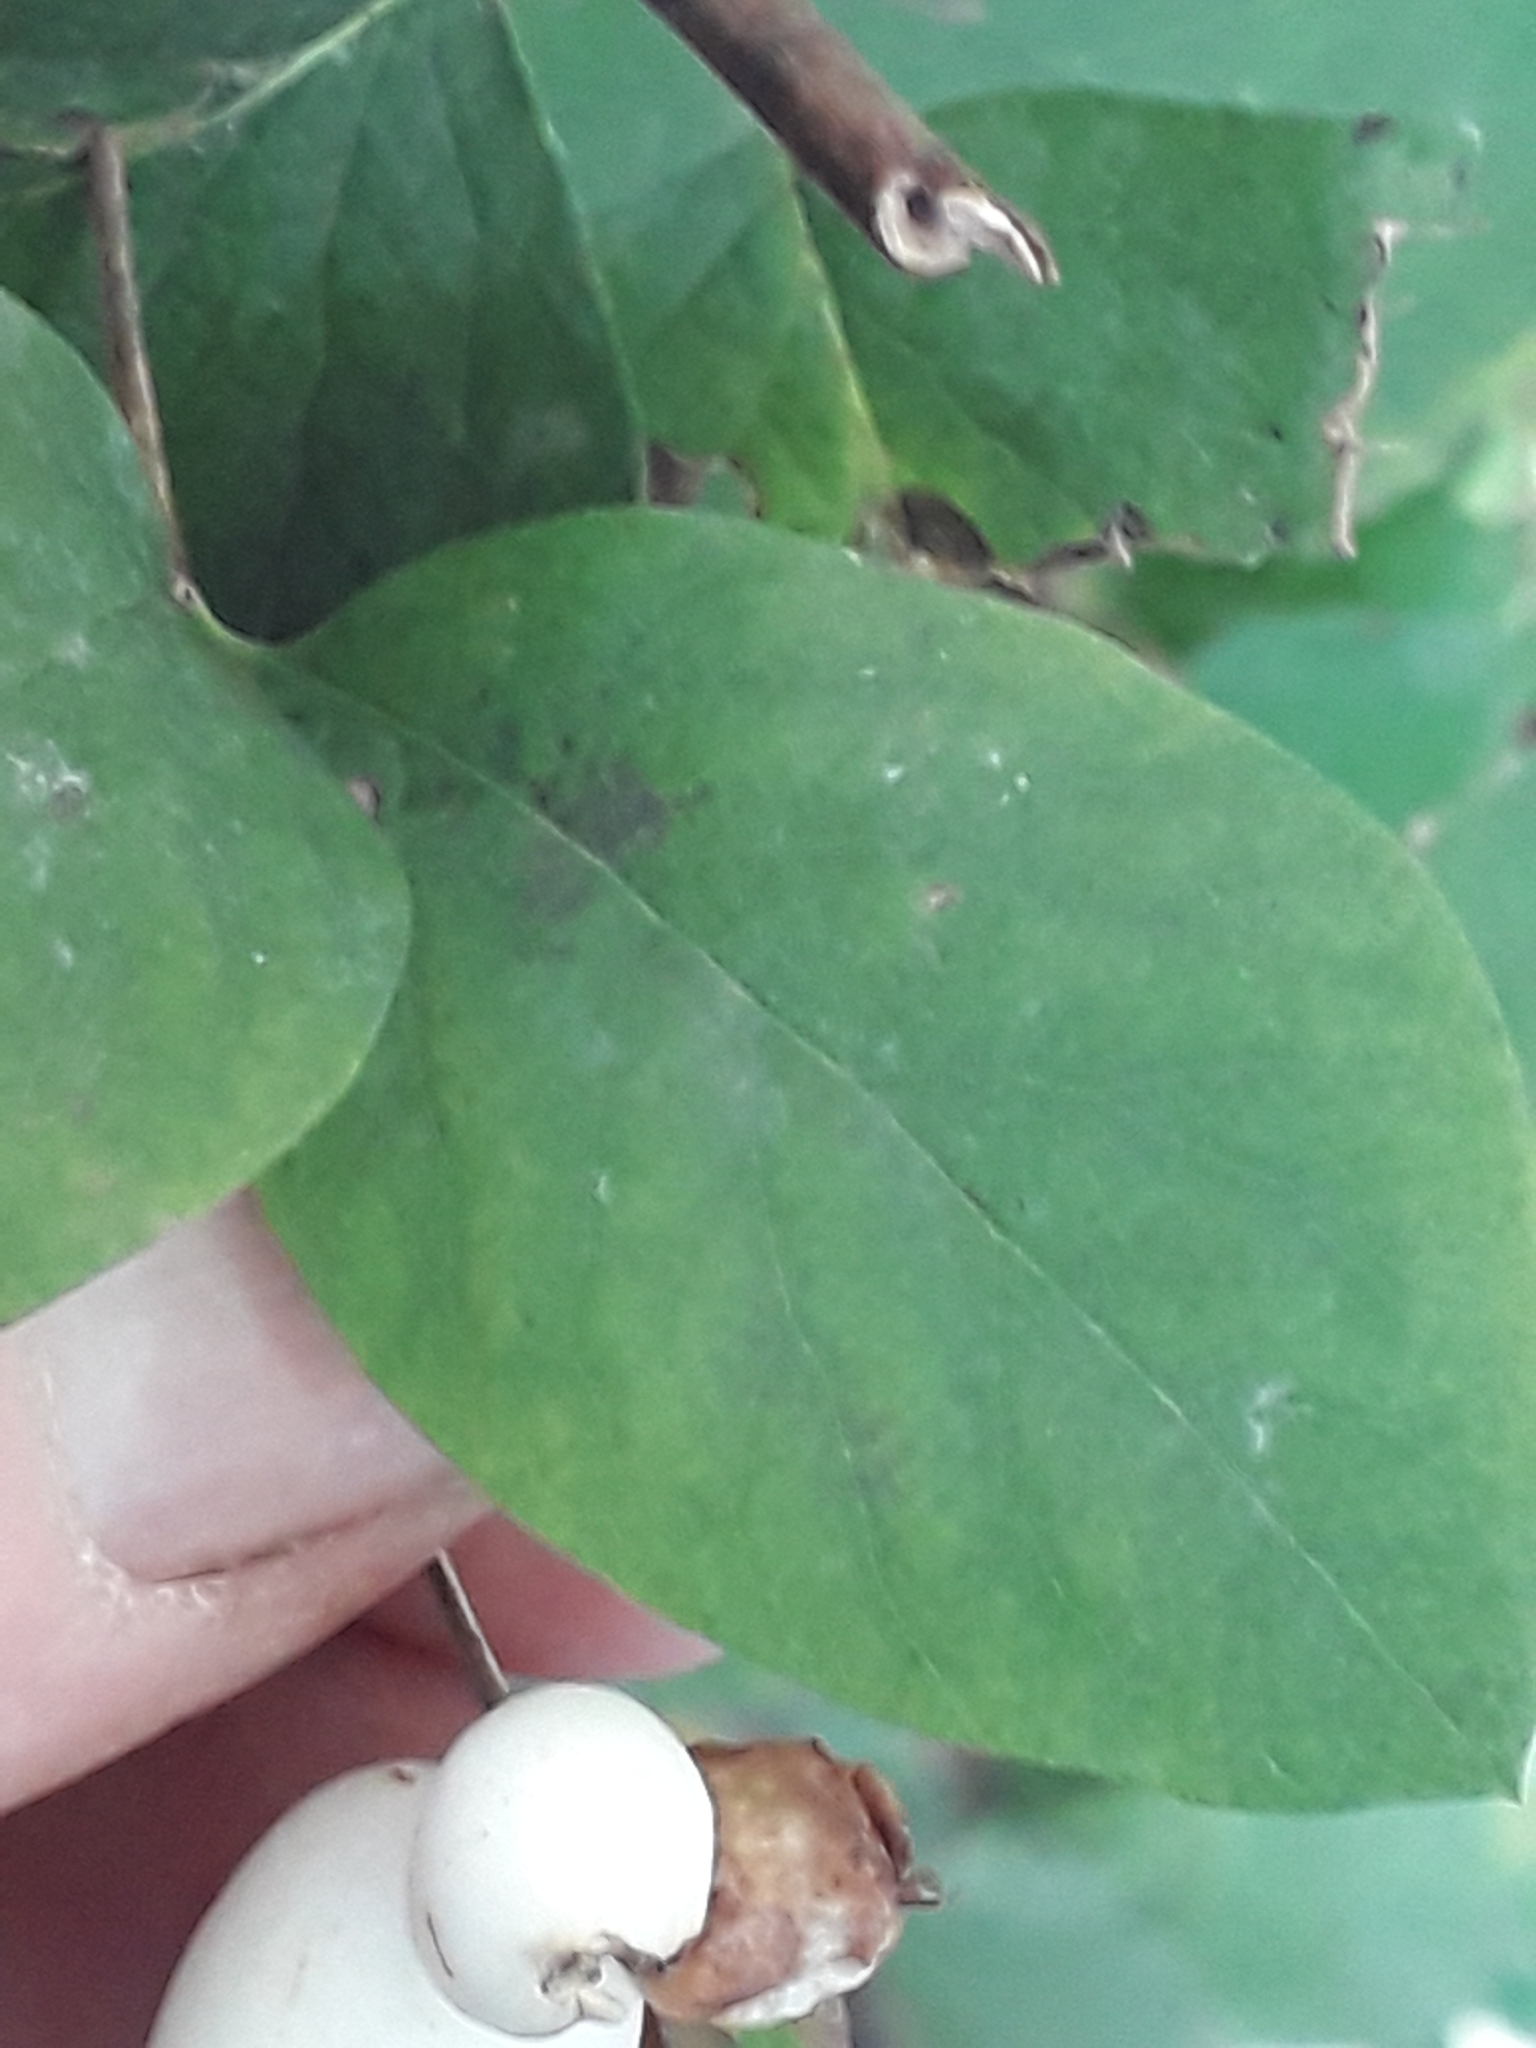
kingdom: Plantae
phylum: Tracheophyta
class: Magnoliopsida
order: Dipsacales
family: Caprifoliaceae
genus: Symphoricarpos
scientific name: Symphoricarpos albus
